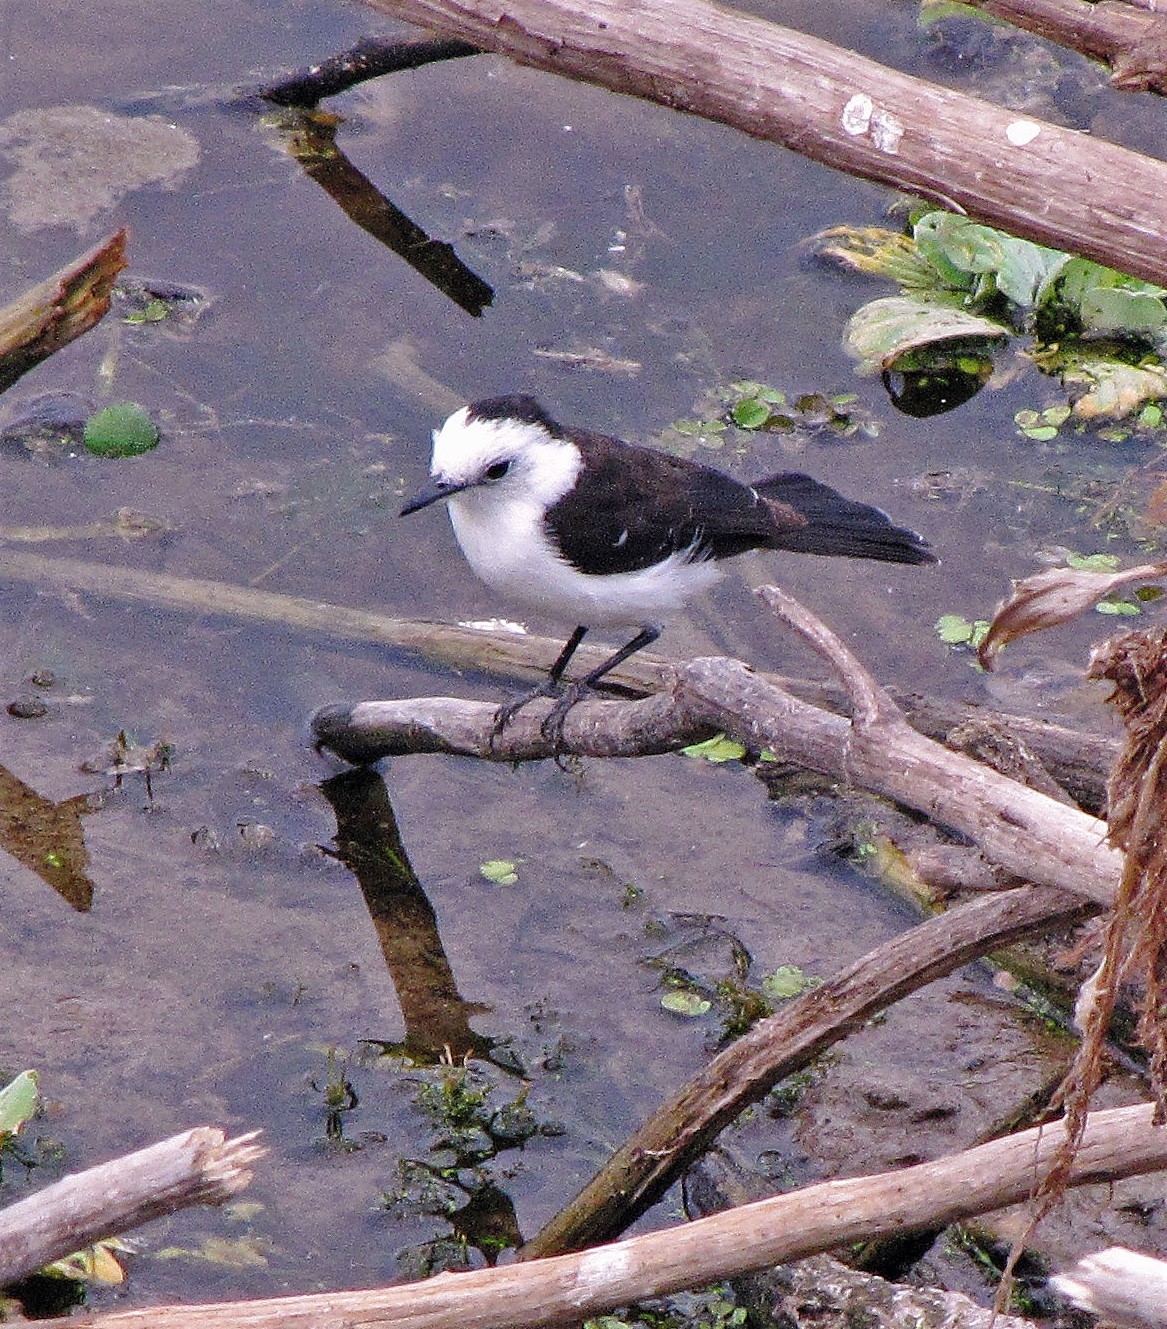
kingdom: Animalia
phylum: Chordata
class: Aves
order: Passeriformes
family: Tyrannidae
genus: Fluvicola
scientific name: Fluvicola pica
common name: Pied water-tyrant
